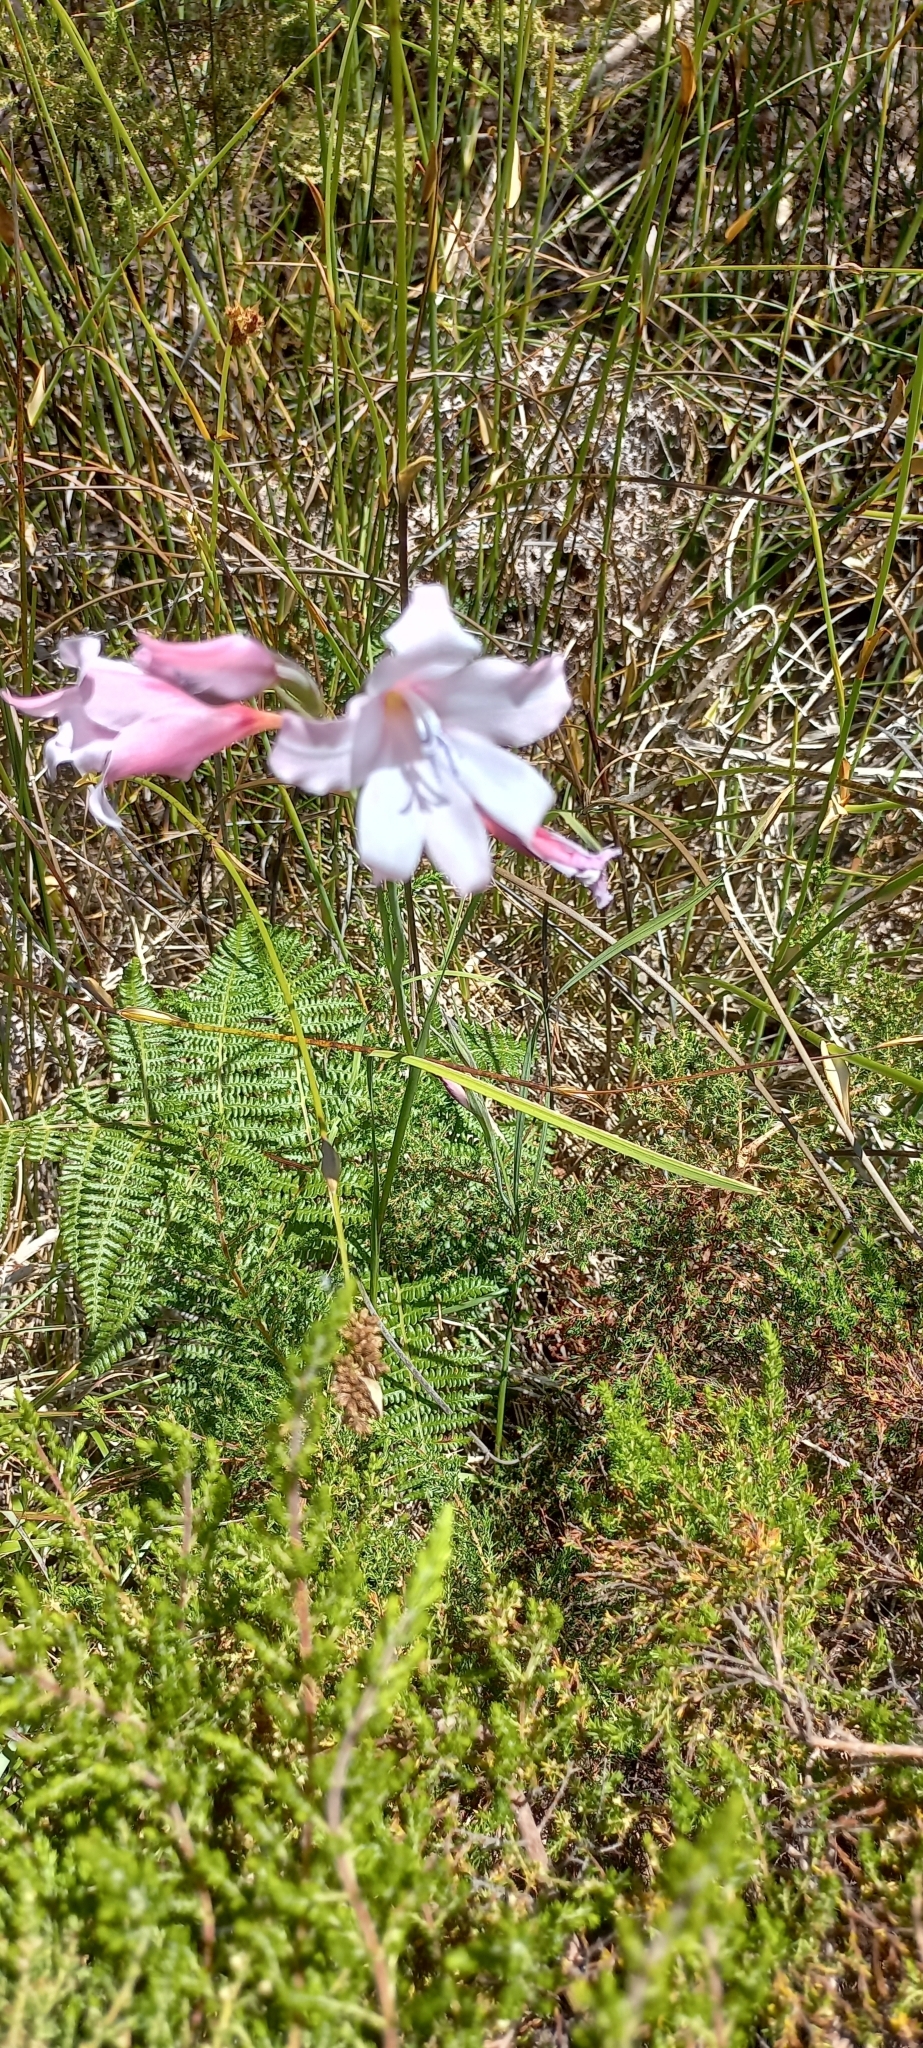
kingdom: Plantae
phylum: Tracheophyta
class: Liliopsida
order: Asparagales
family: Iridaceae
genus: Gladiolus
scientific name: Gladiolus carneus
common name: Painted-lady
